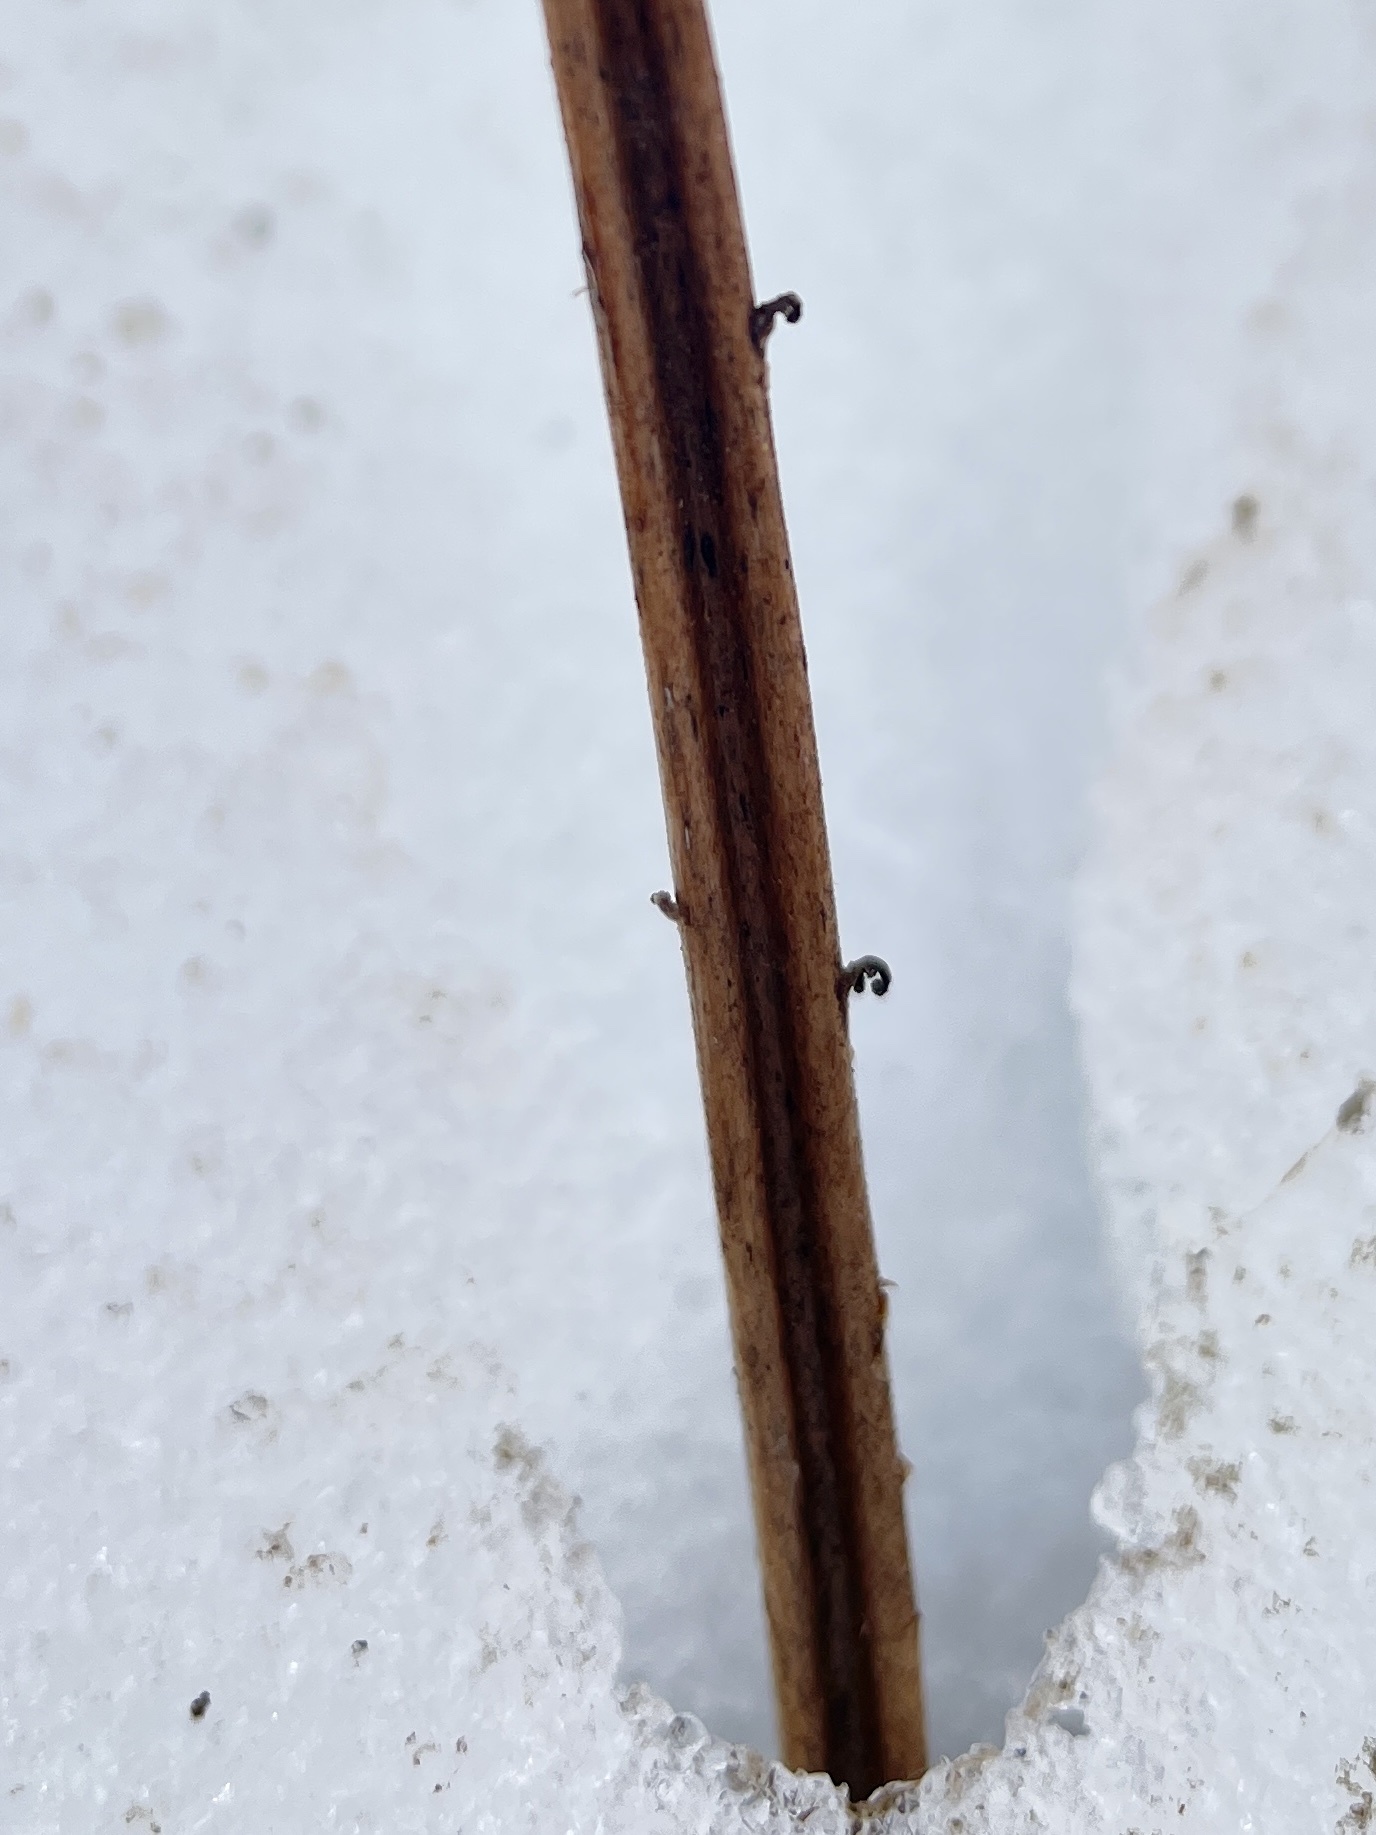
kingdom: Plantae
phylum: Tracheophyta
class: Polypodiopsida
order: Polypodiales
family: Onocleaceae
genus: Matteuccia
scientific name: Matteuccia pensylvanica
